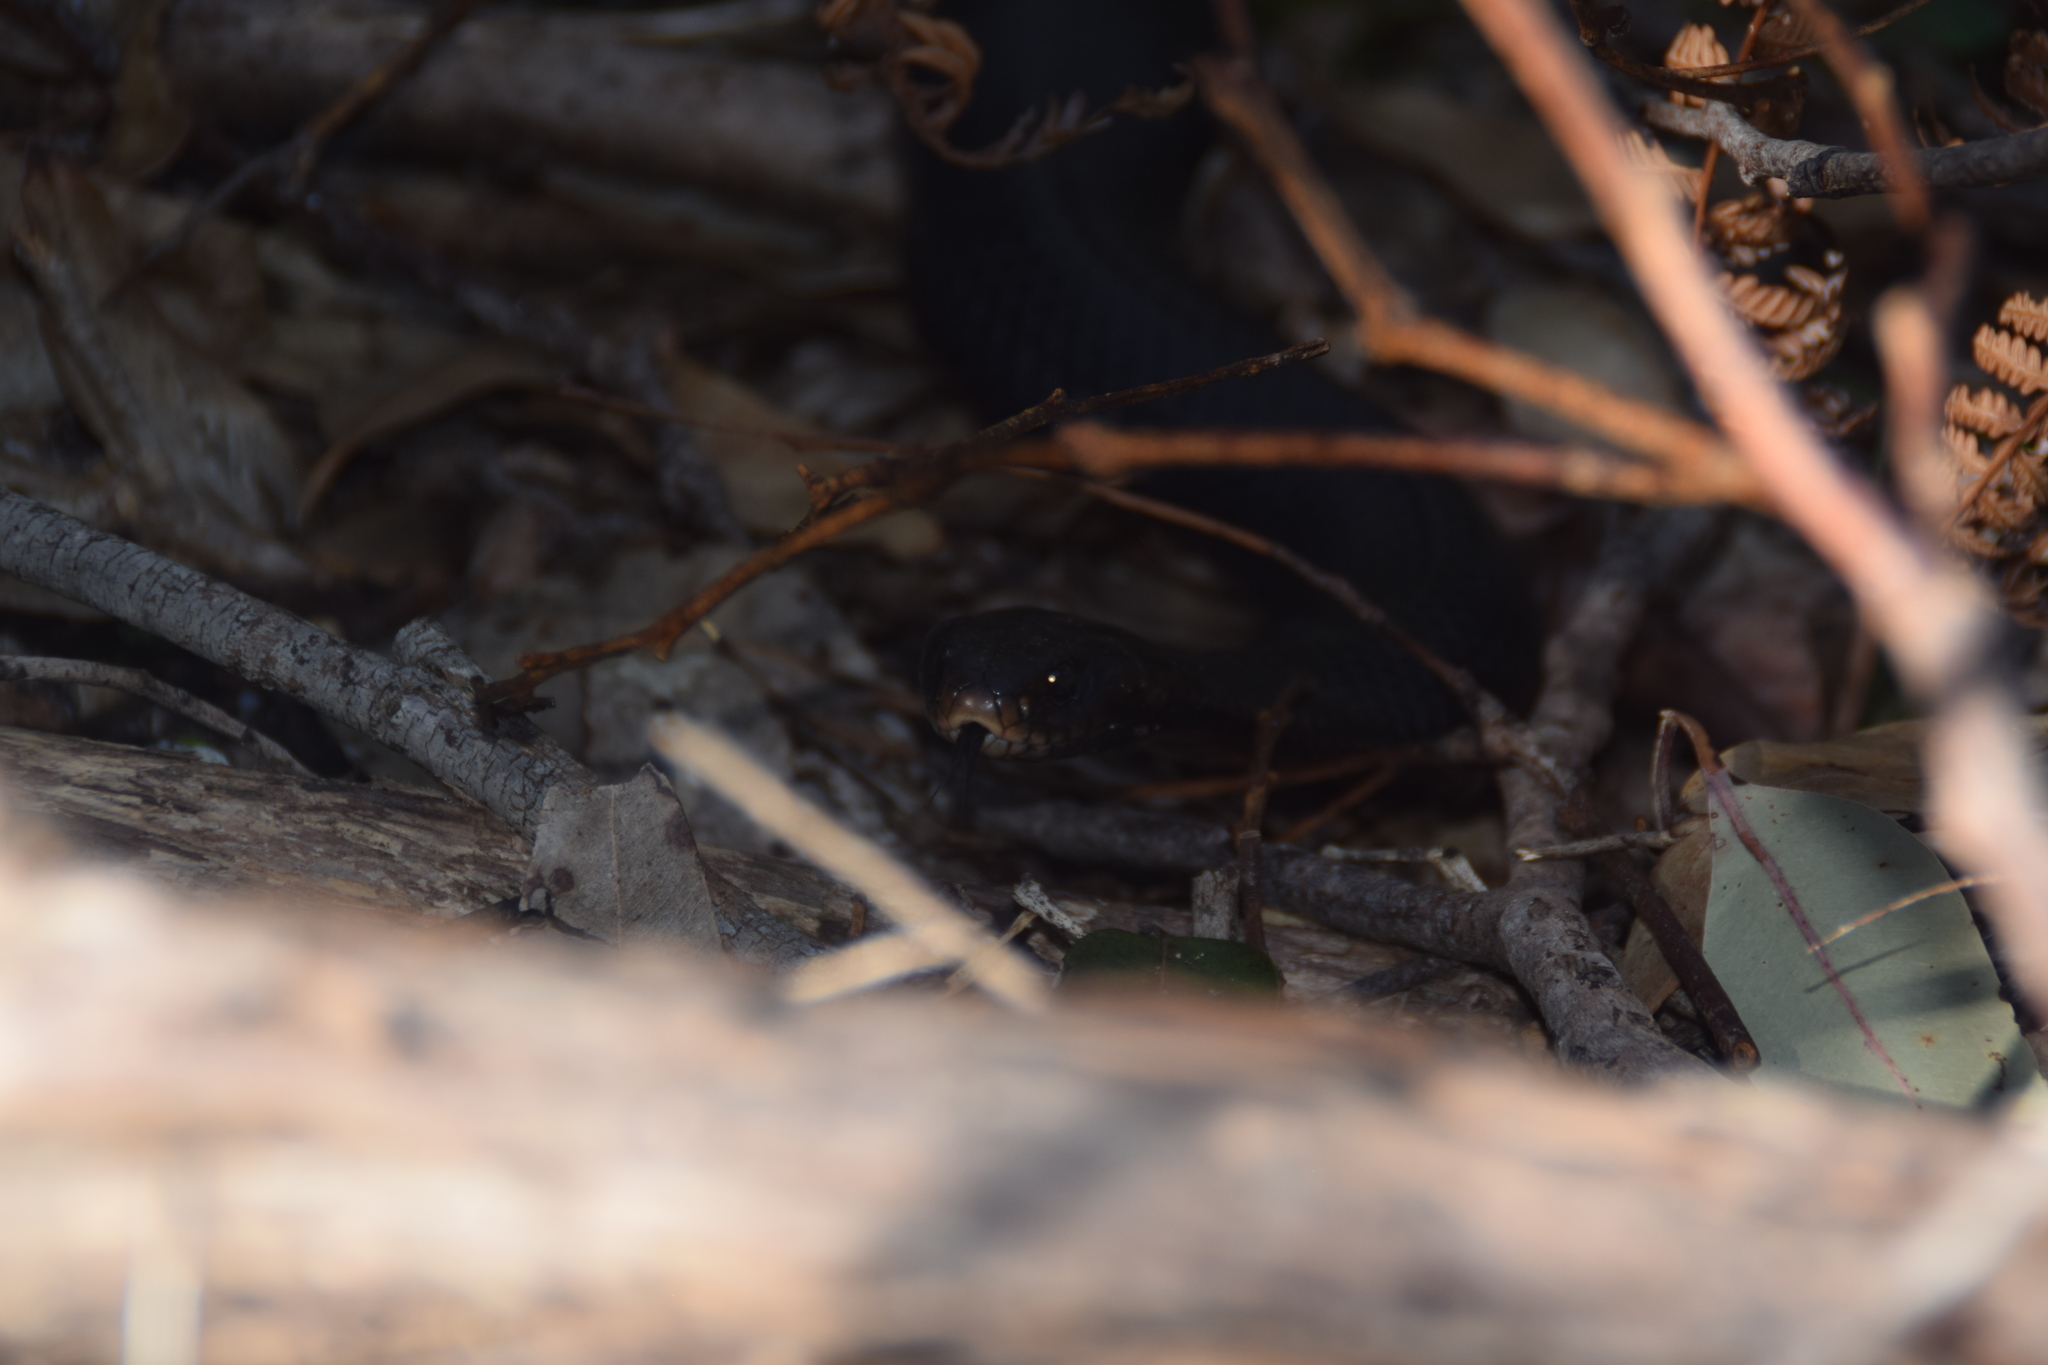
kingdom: Animalia
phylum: Chordata
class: Squamata
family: Elapidae
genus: Pseudechis
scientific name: Pseudechis porphyriacus
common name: Australian black snake
